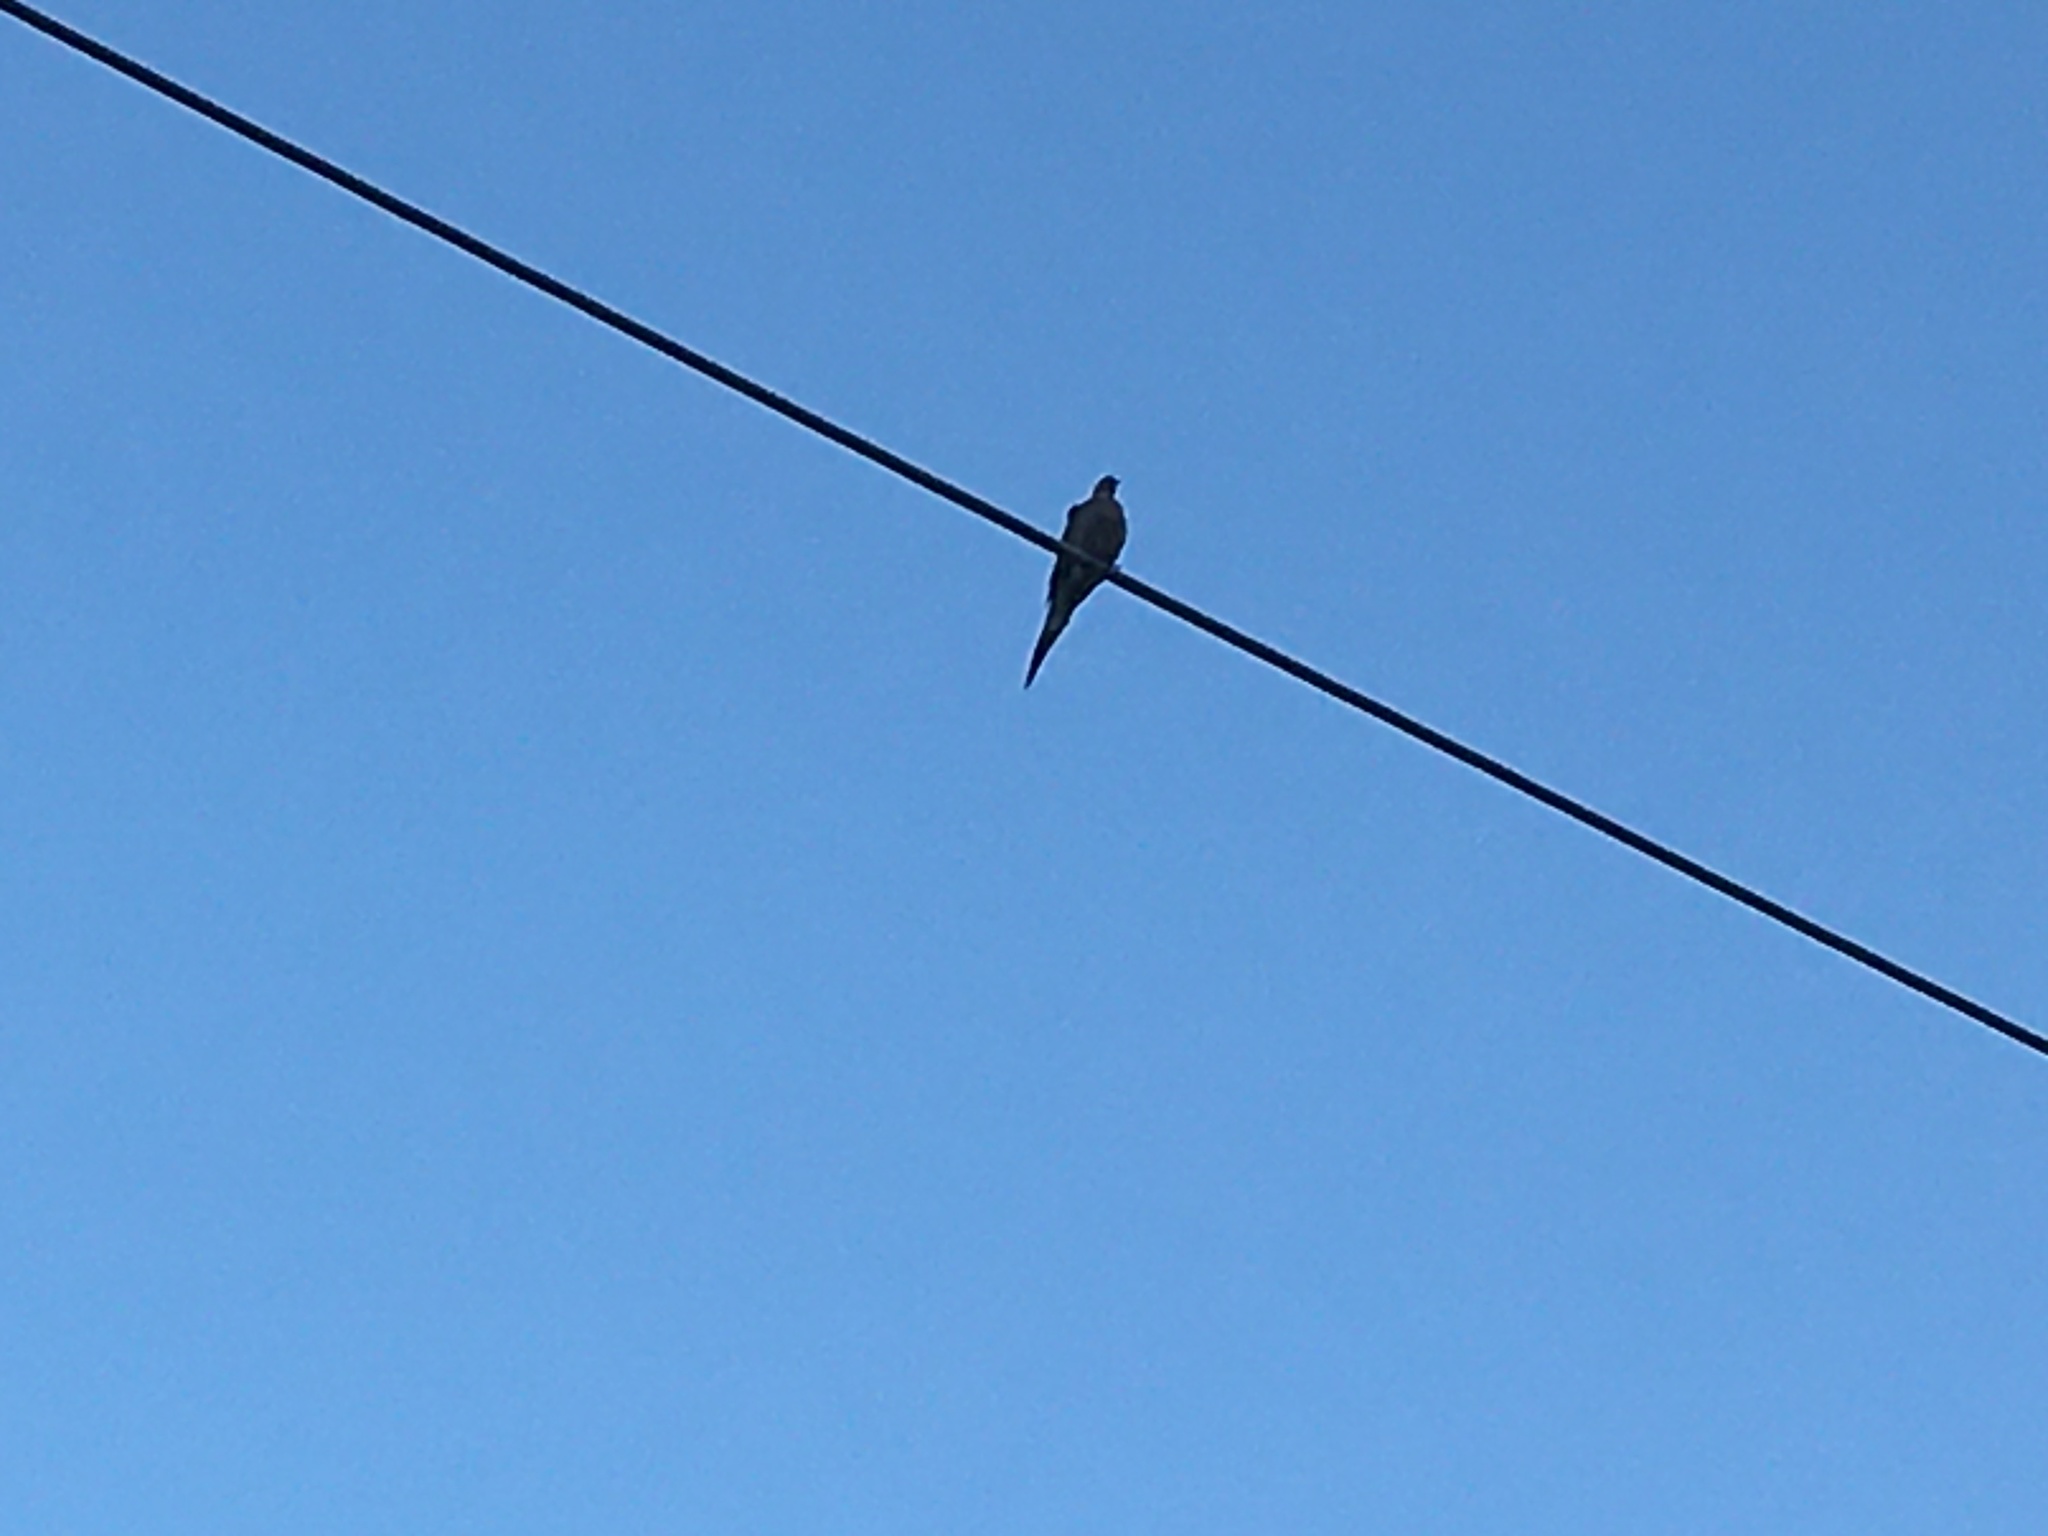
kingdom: Animalia
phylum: Chordata
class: Aves
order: Columbiformes
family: Columbidae
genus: Zenaida
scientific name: Zenaida macroura
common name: Mourning dove
